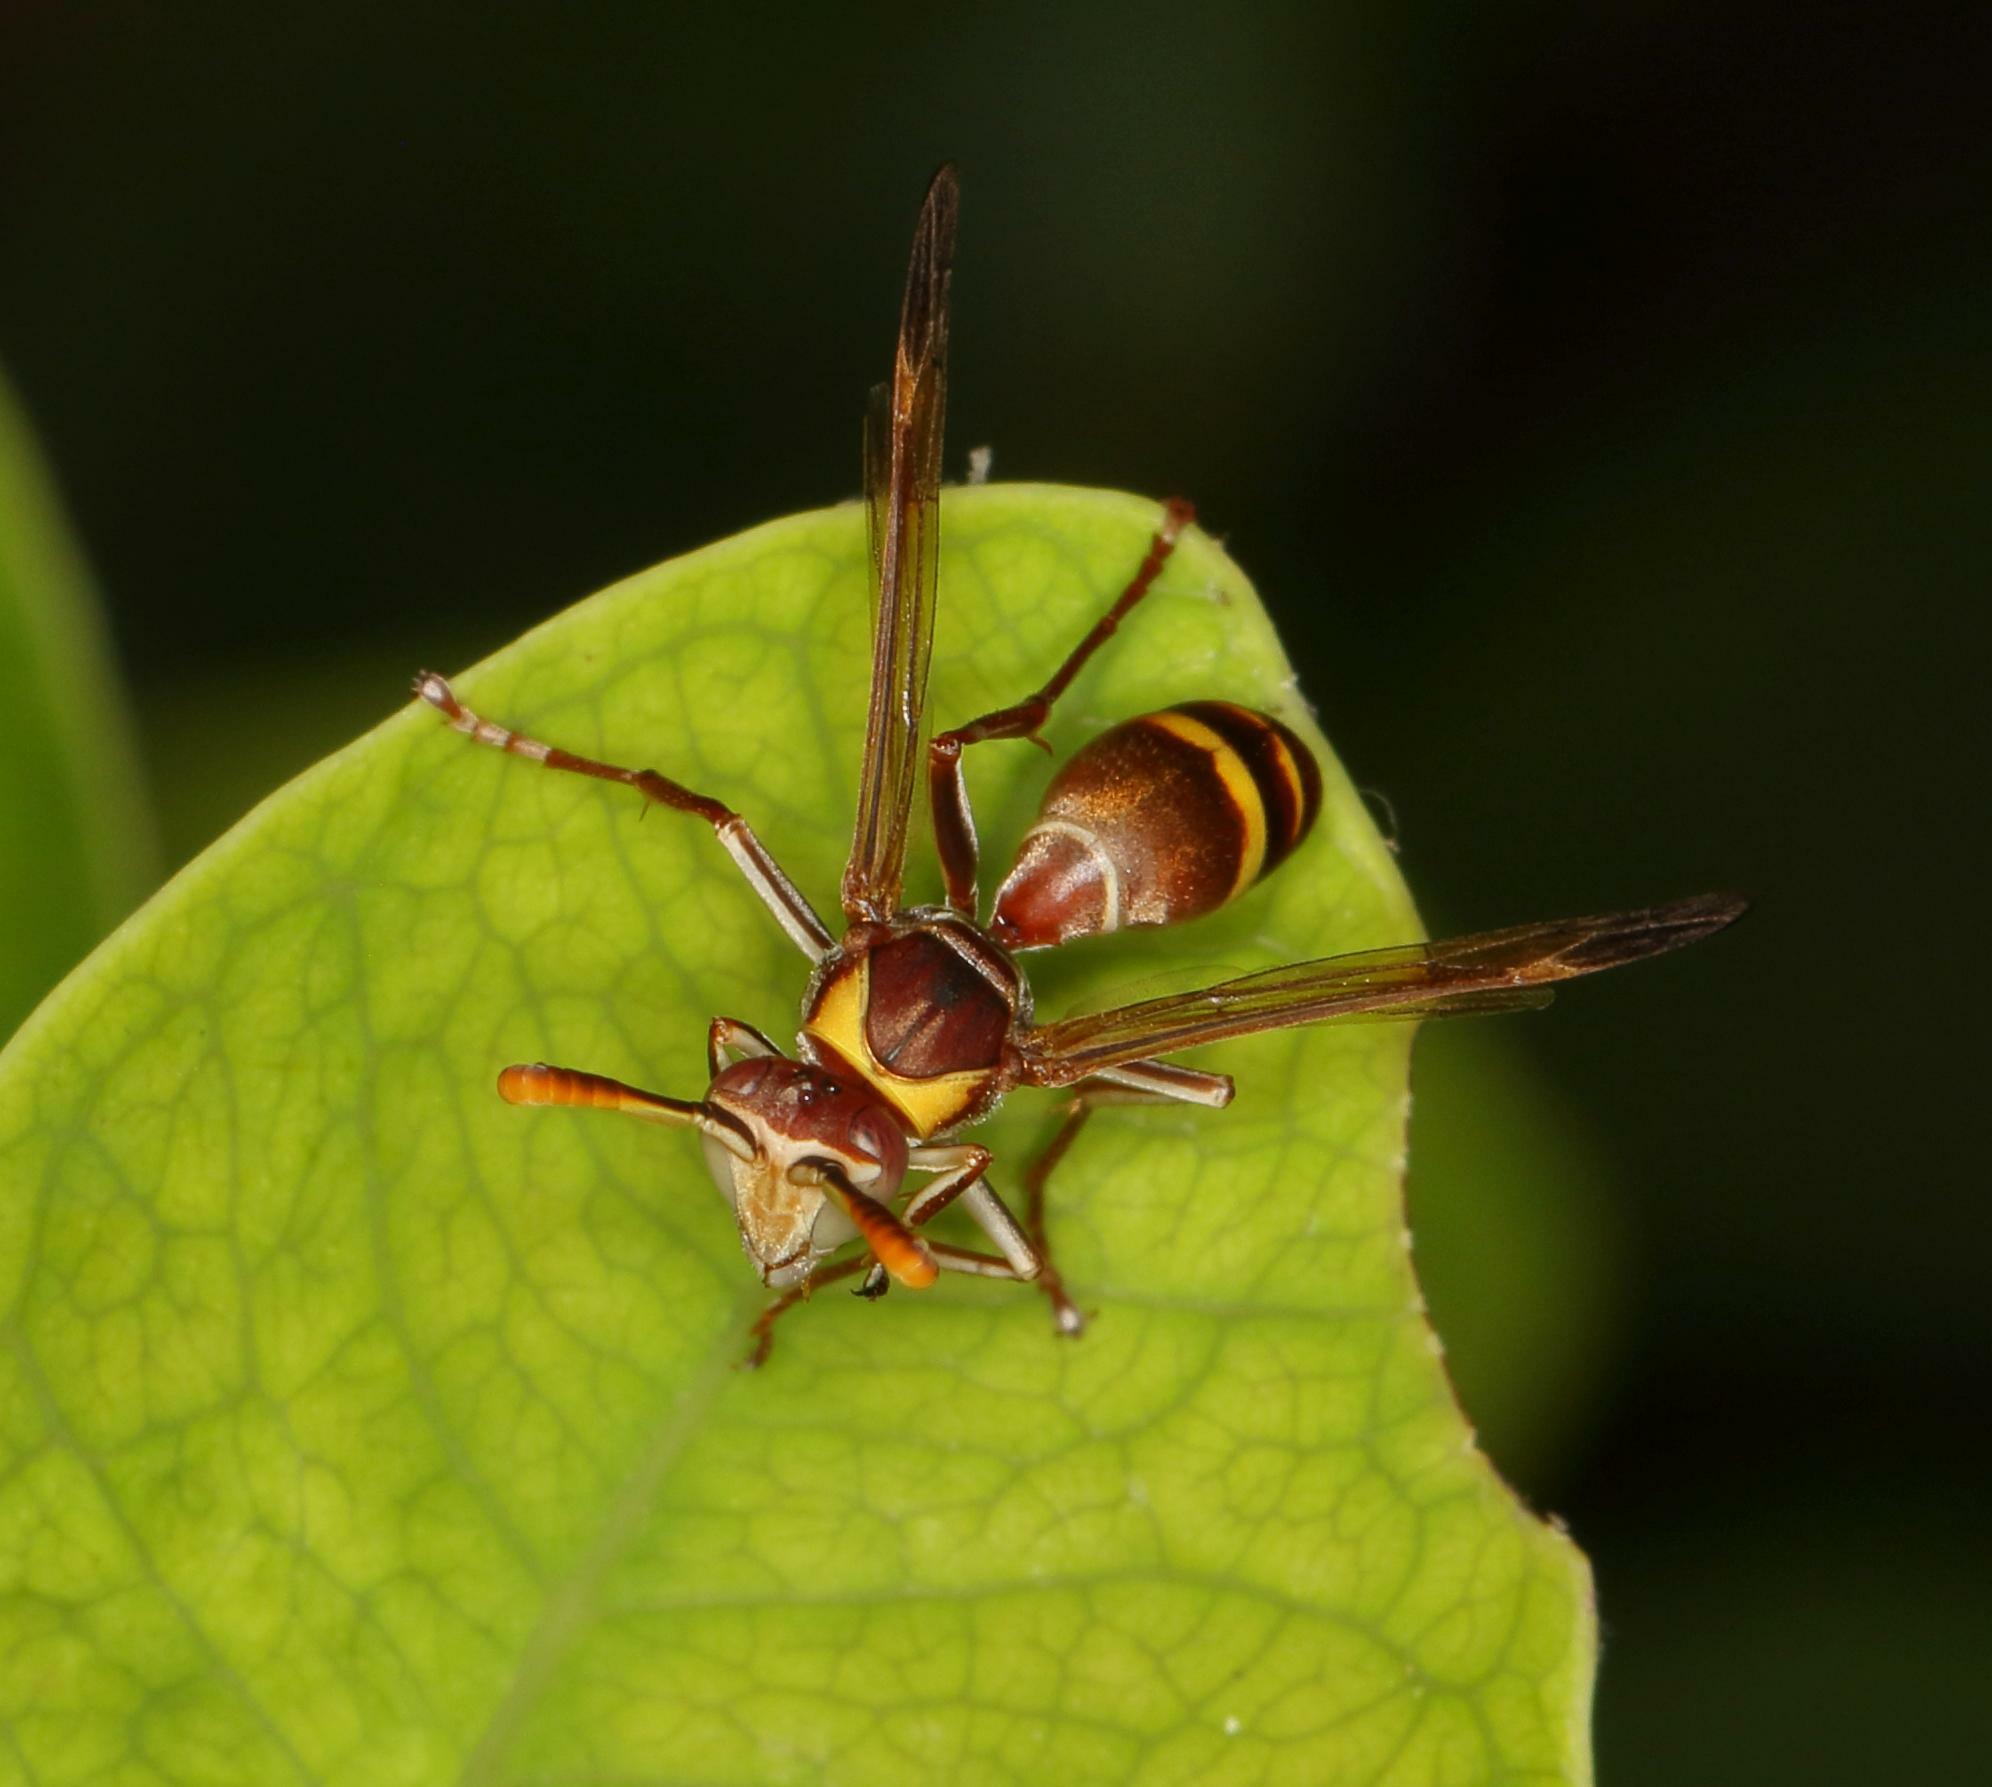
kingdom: Animalia
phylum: Arthropoda
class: Insecta
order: Hymenoptera
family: Eumenidae
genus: Polistes
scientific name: Polistes badius
